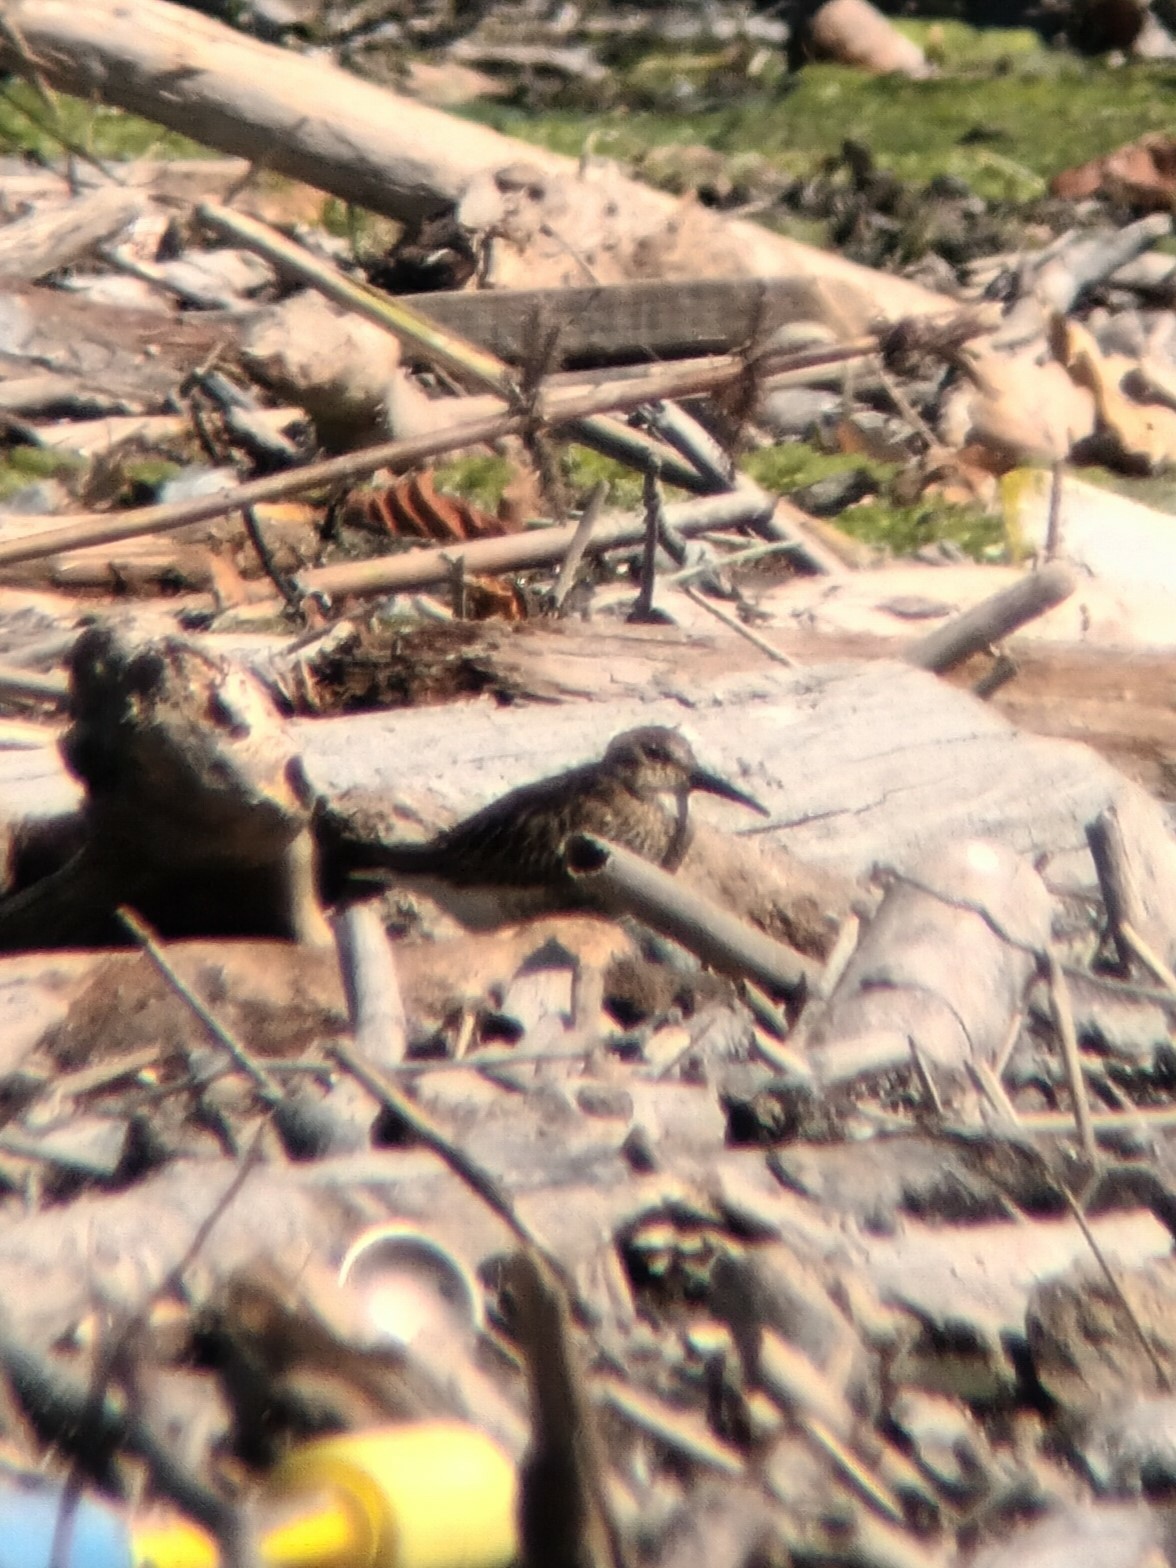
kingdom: Animalia
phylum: Chordata
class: Aves
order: Charadriiformes
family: Scolopacidae
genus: Calidris
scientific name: Calidris alpina
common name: Dunlin
